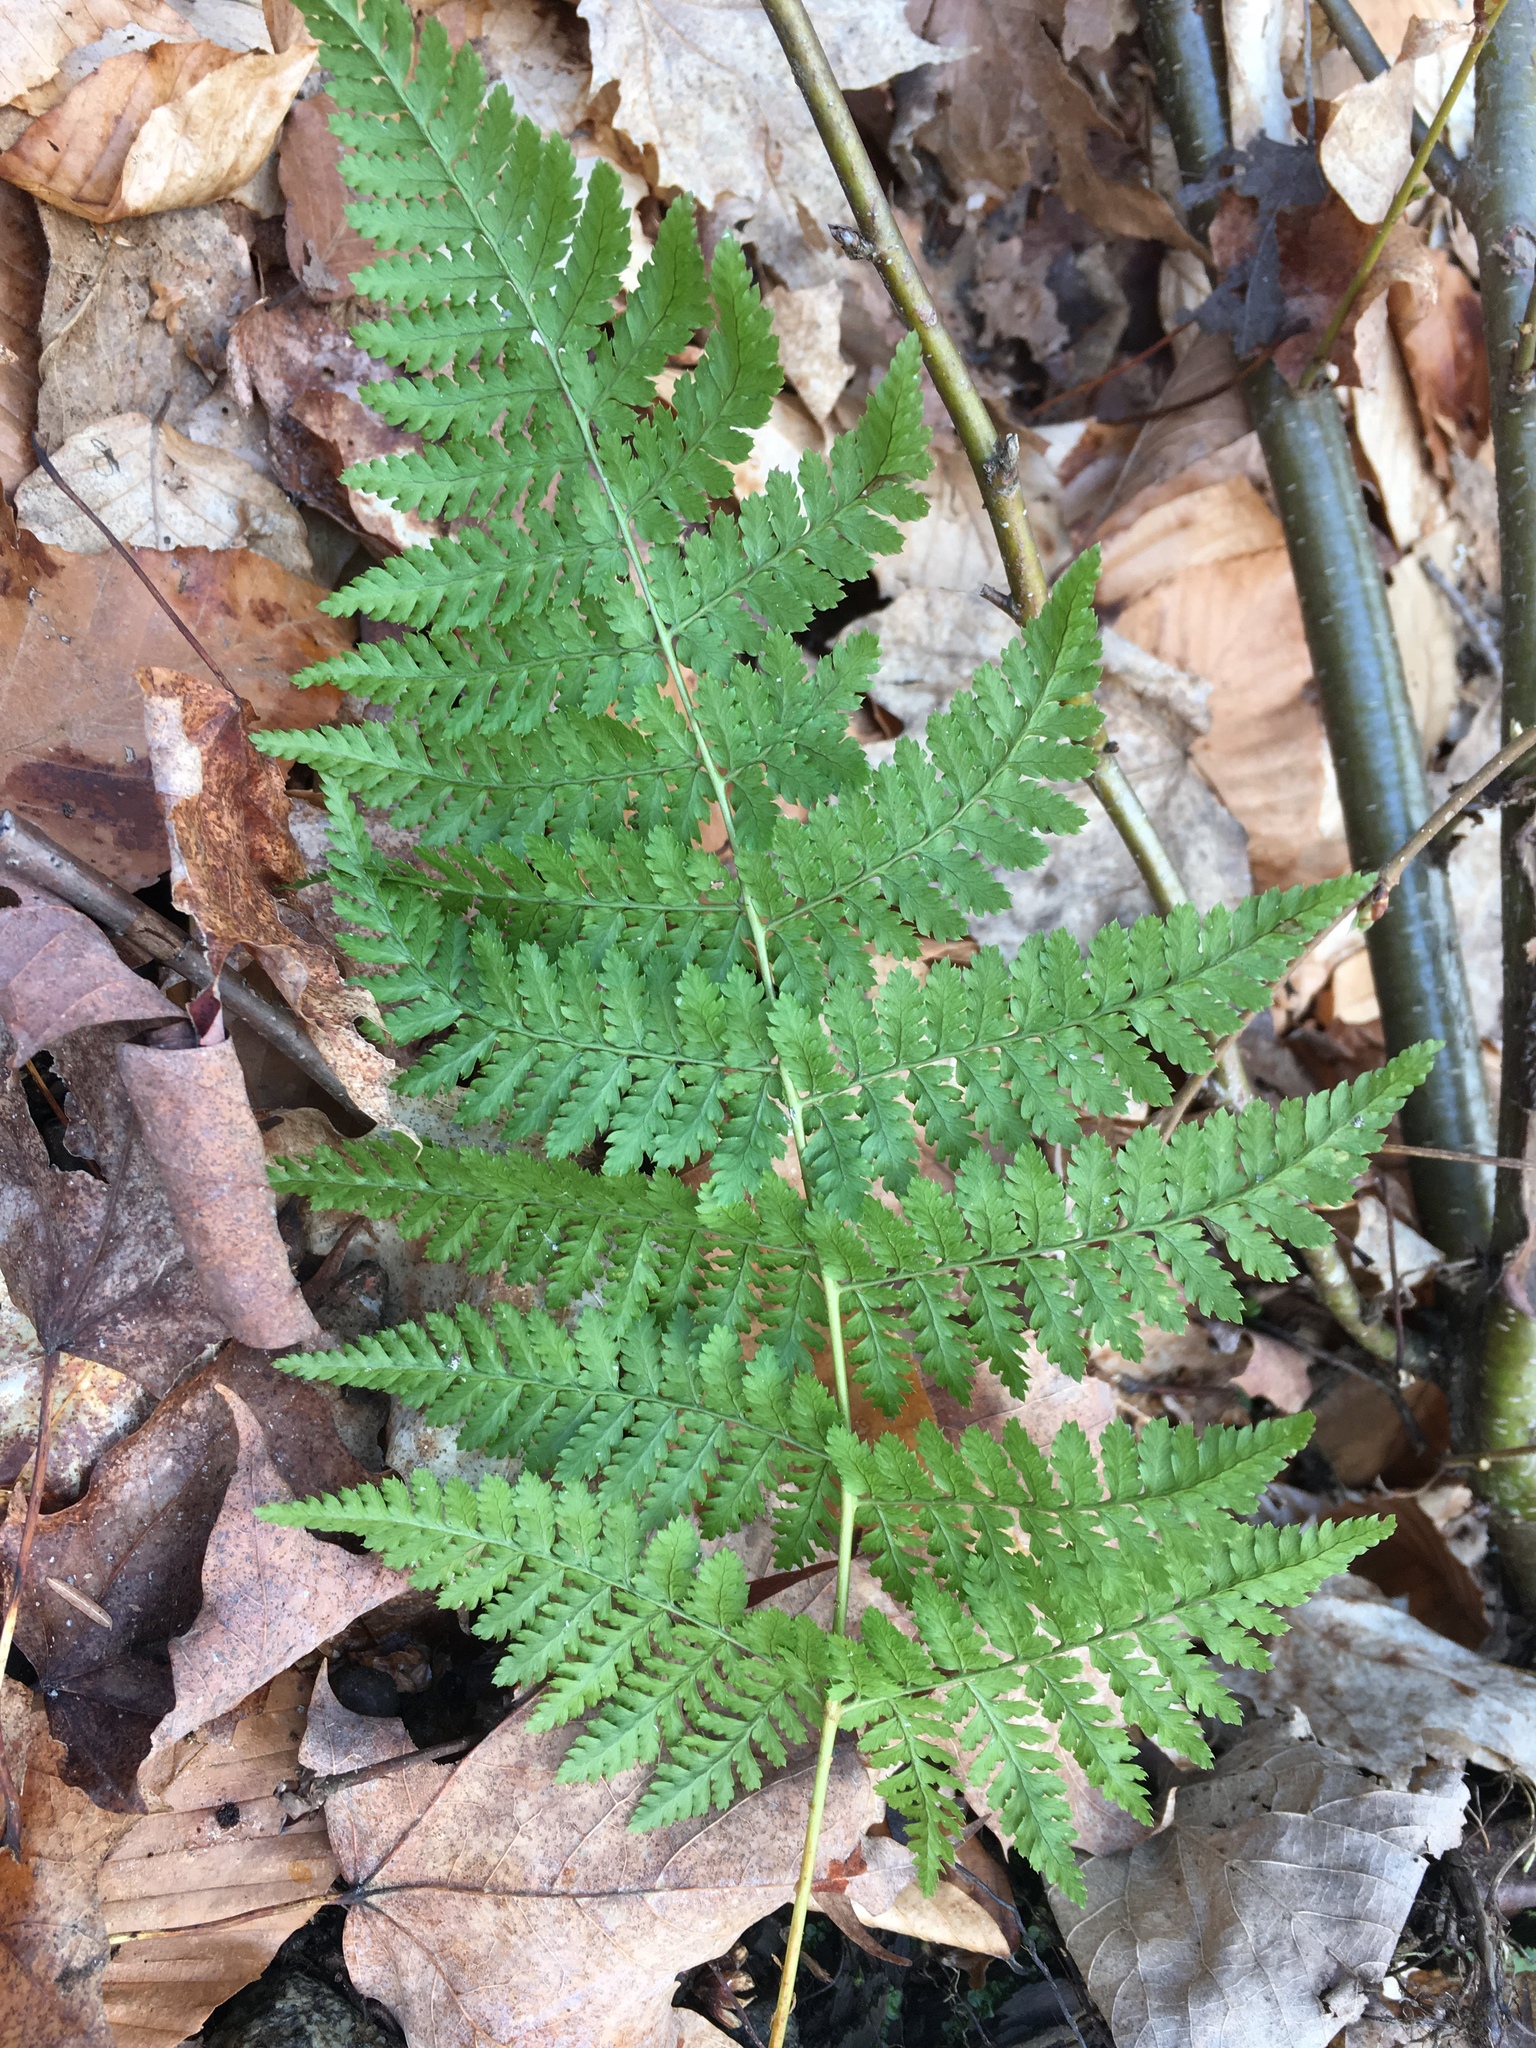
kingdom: Plantae
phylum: Tracheophyta
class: Polypodiopsida
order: Polypodiales
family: Dryopteridaceae
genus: Dryopteris
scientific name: Dryopteris intermedia
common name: Evergreen wood fern
